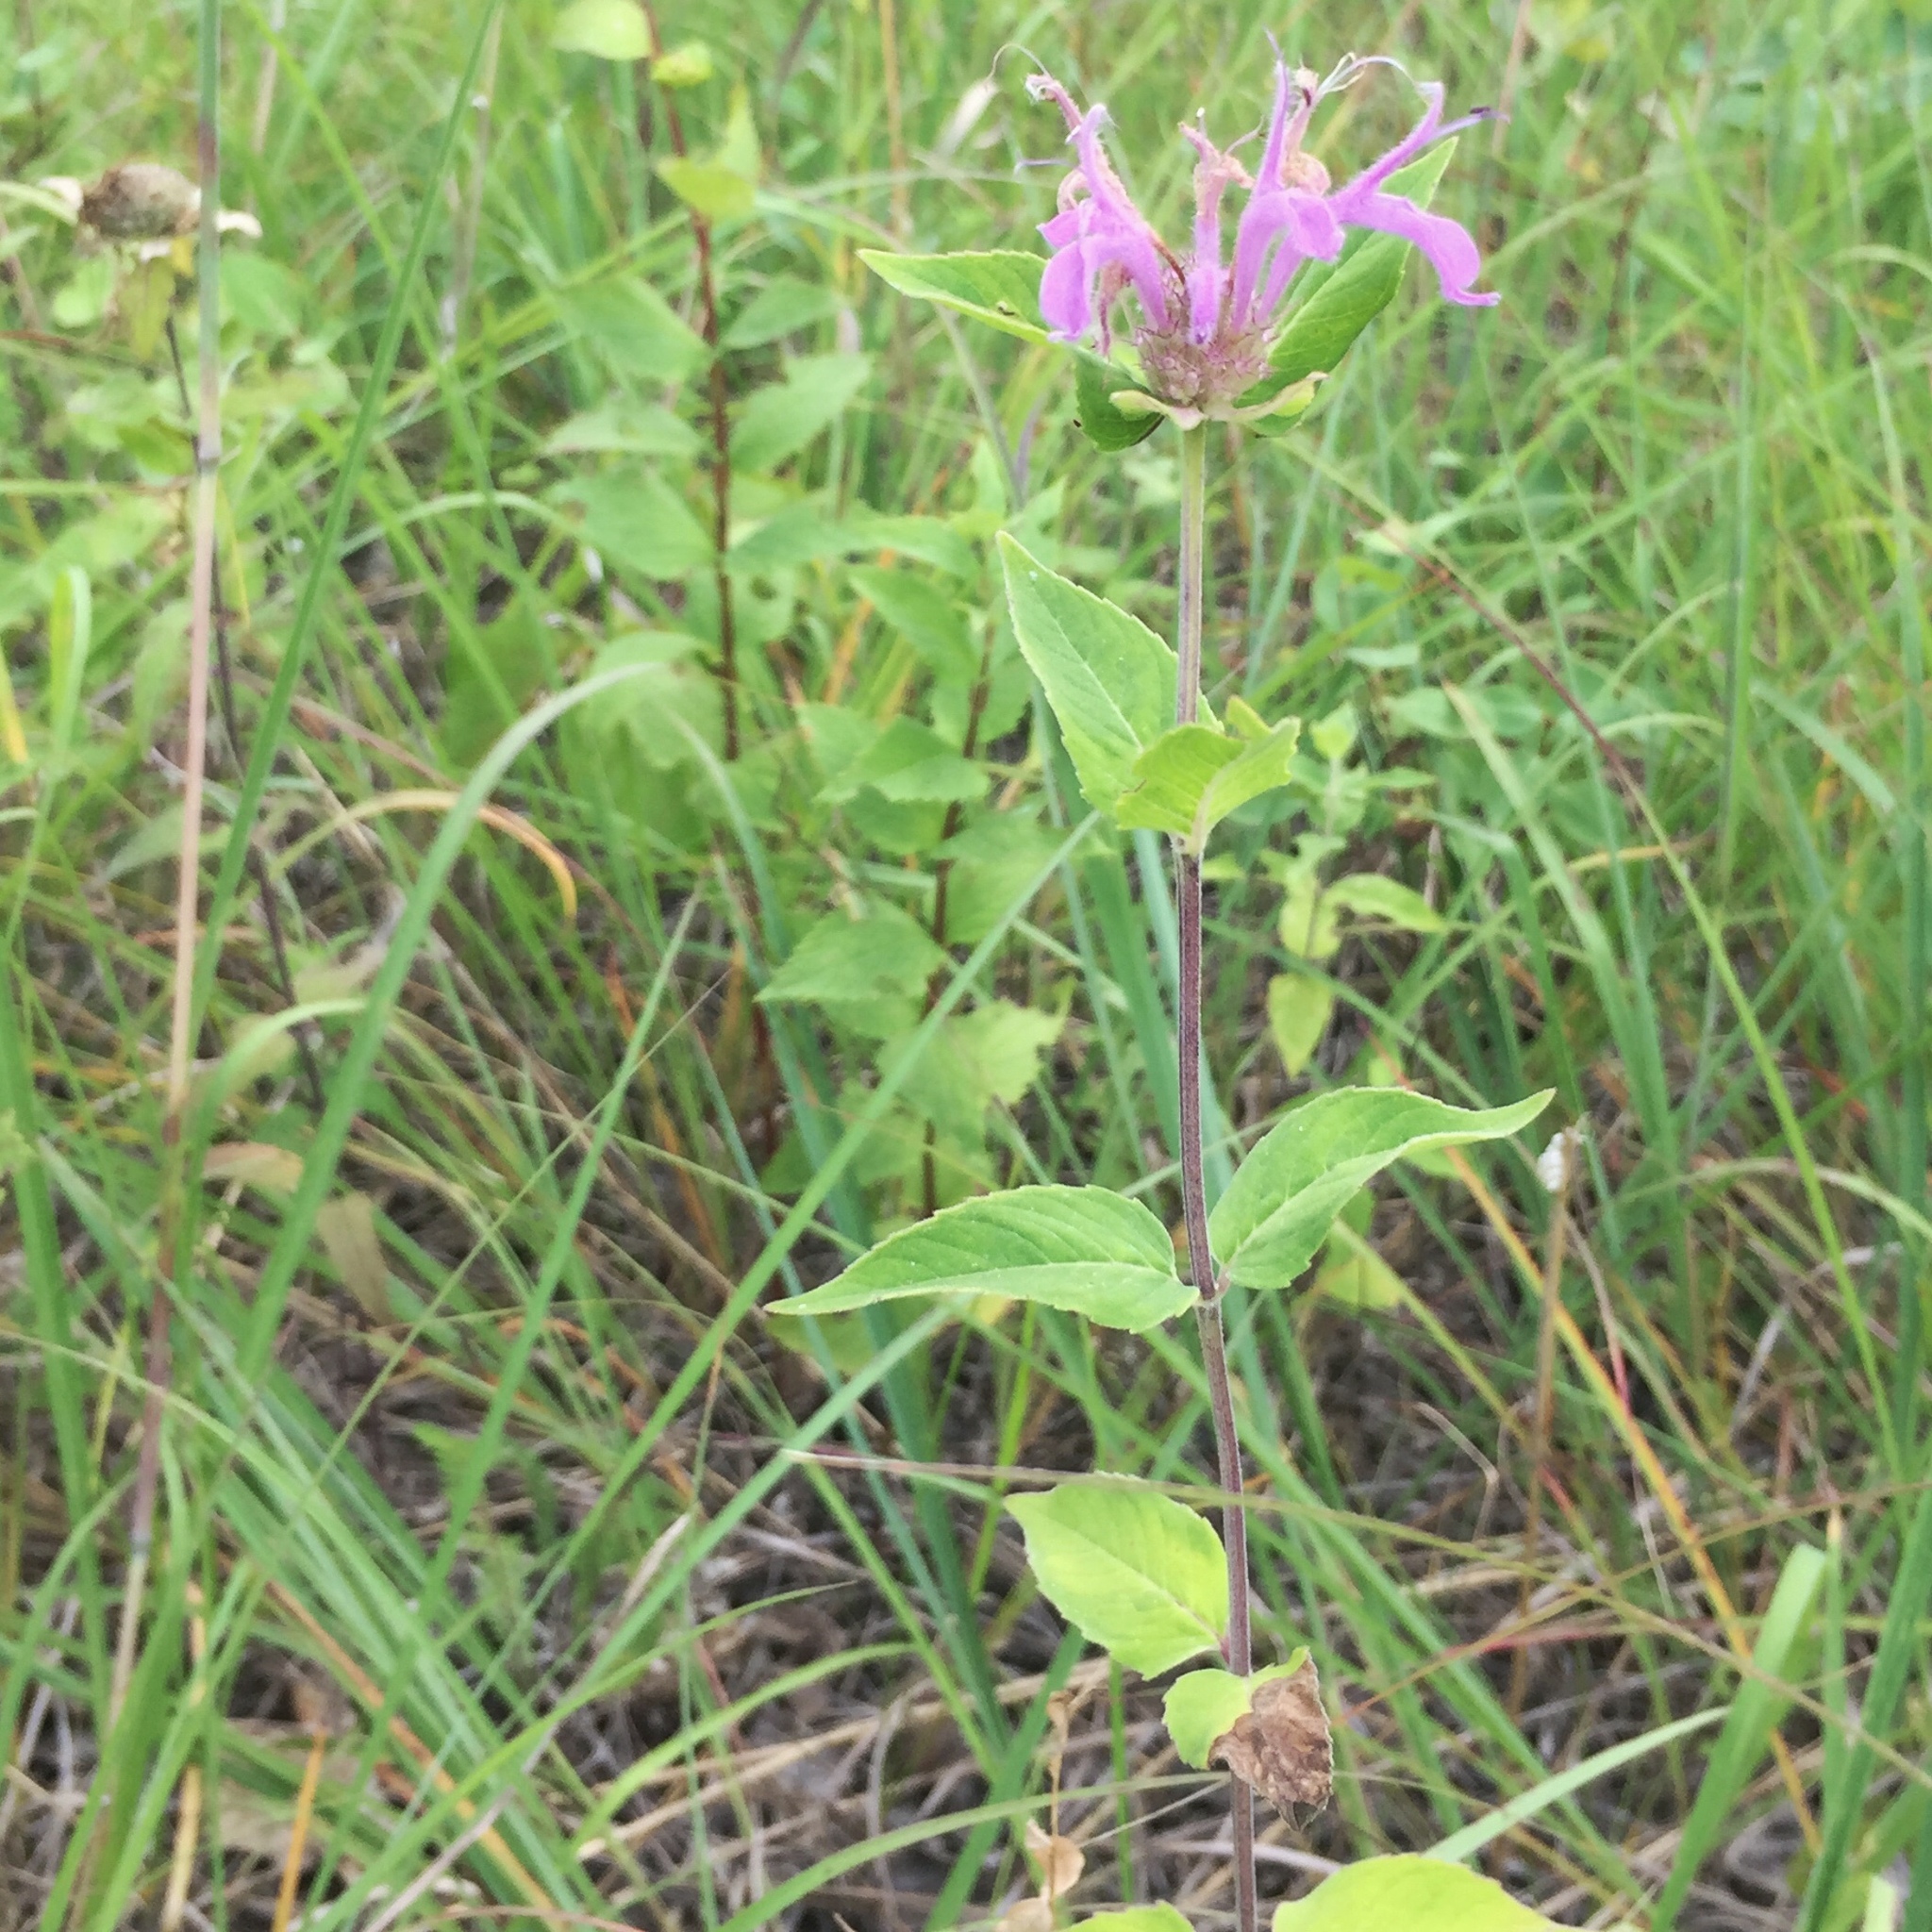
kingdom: Plantae
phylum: Tracheophyta
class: Magnoliopsida
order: Lamiales
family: Lamiaceae
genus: Monarda
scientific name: Monarda fistulosa
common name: Purple beebalm
